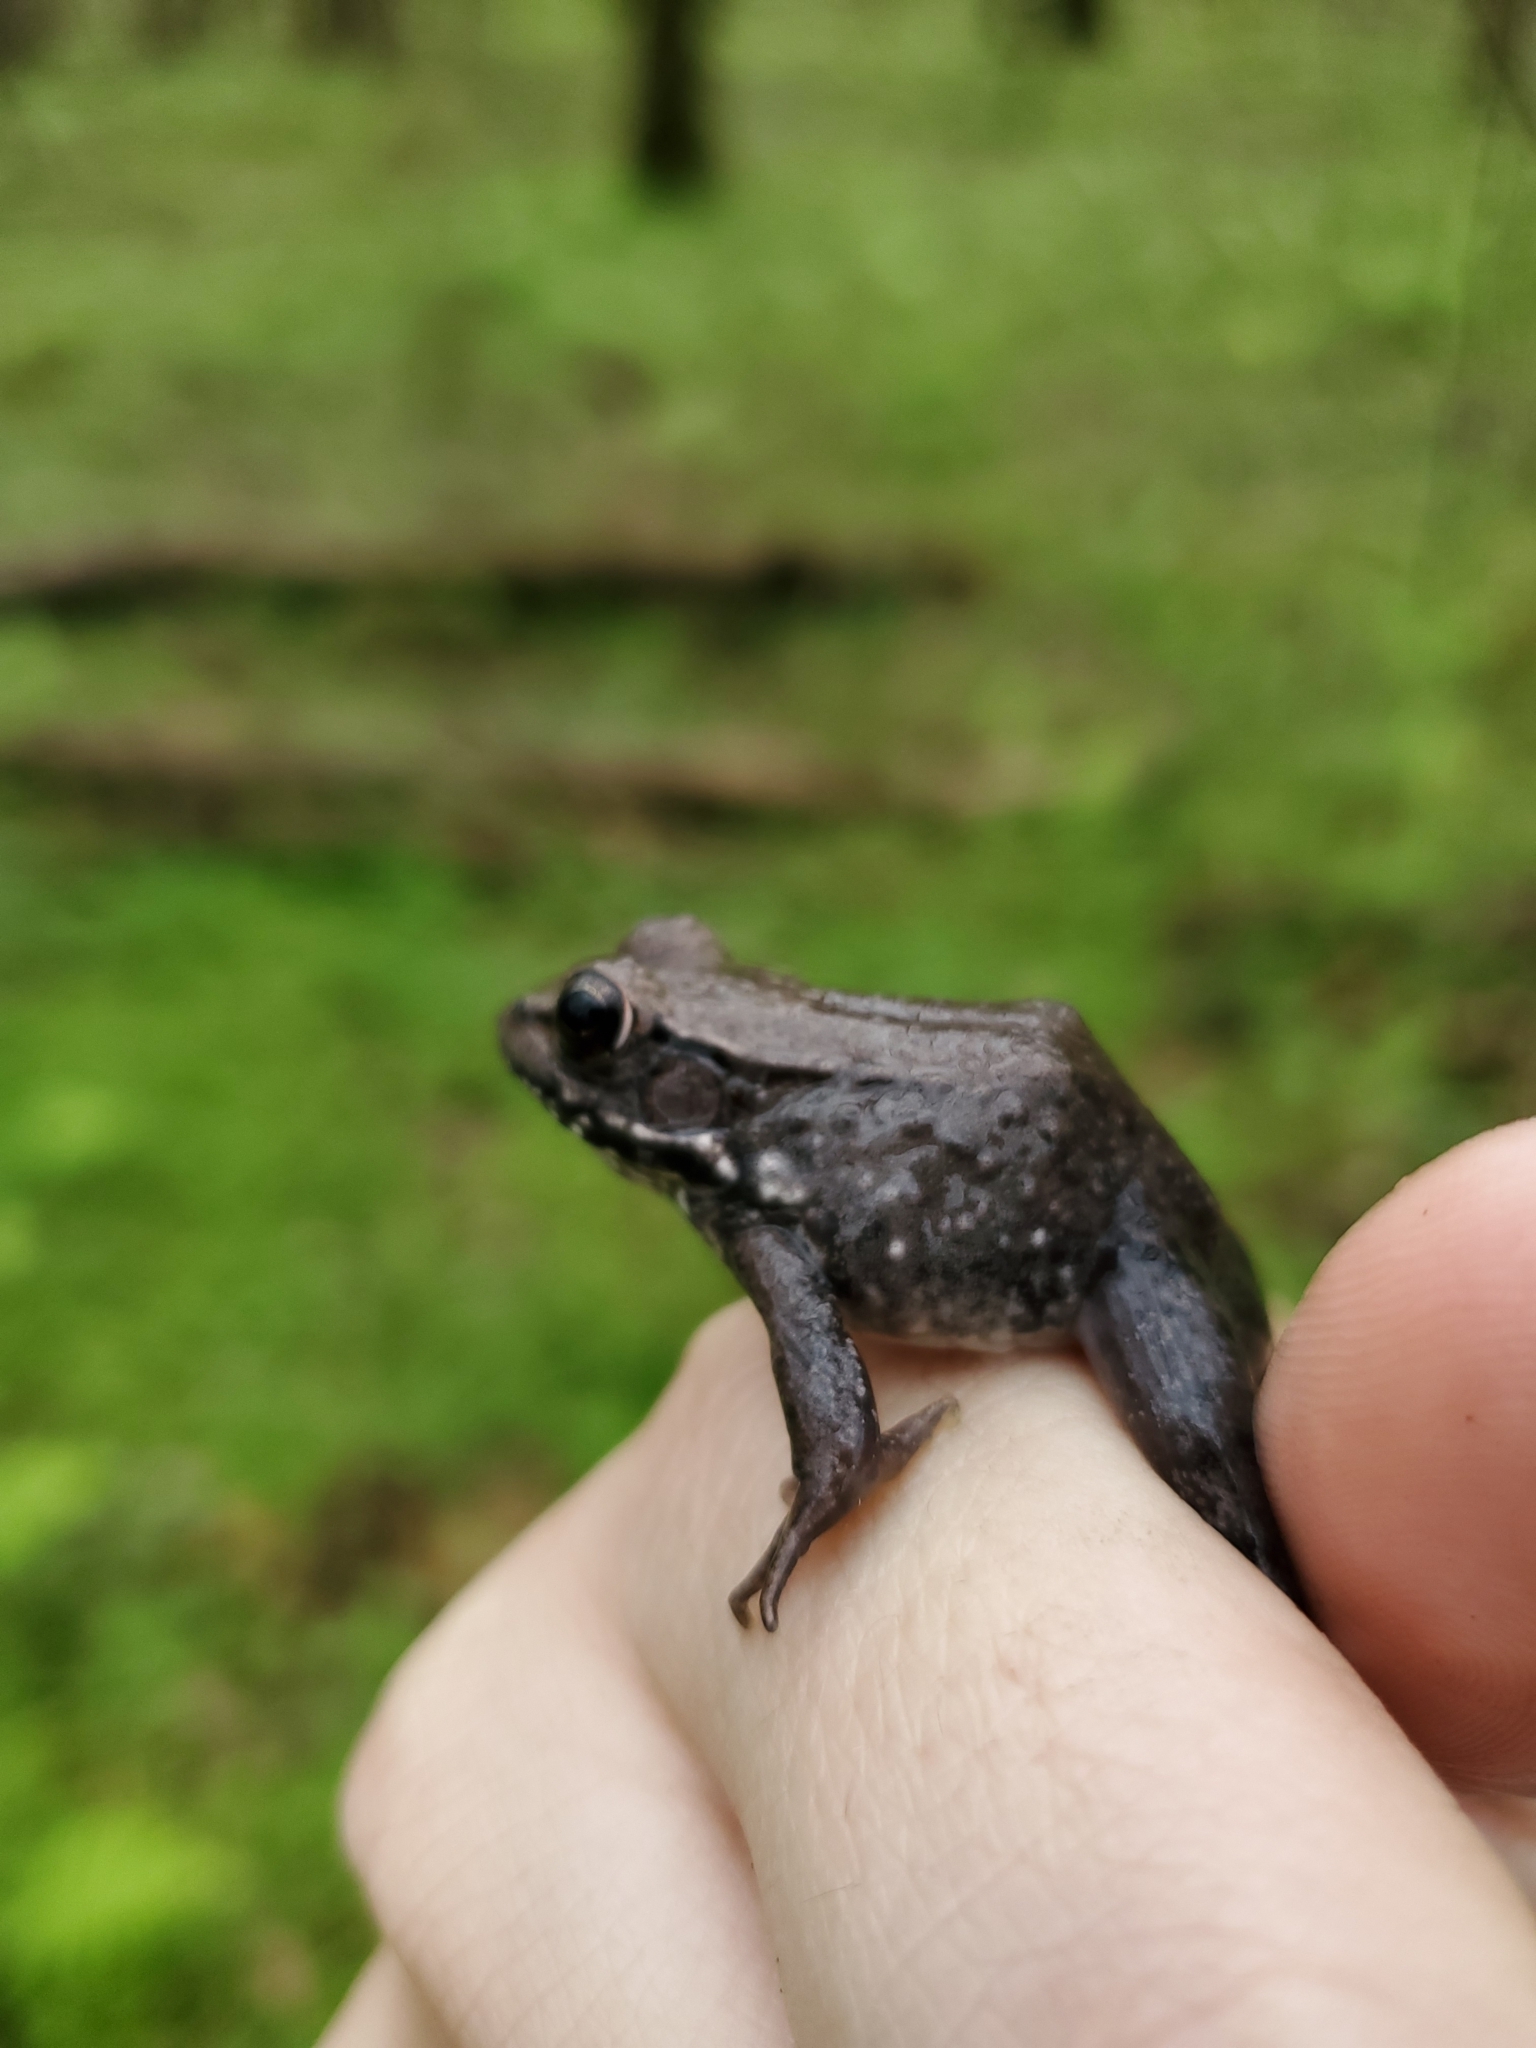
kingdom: Animalia
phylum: Chordata
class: Amphibia
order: Anura
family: Ranidae
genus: Lithobates
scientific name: Lithobates clamitans
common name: Green frog
